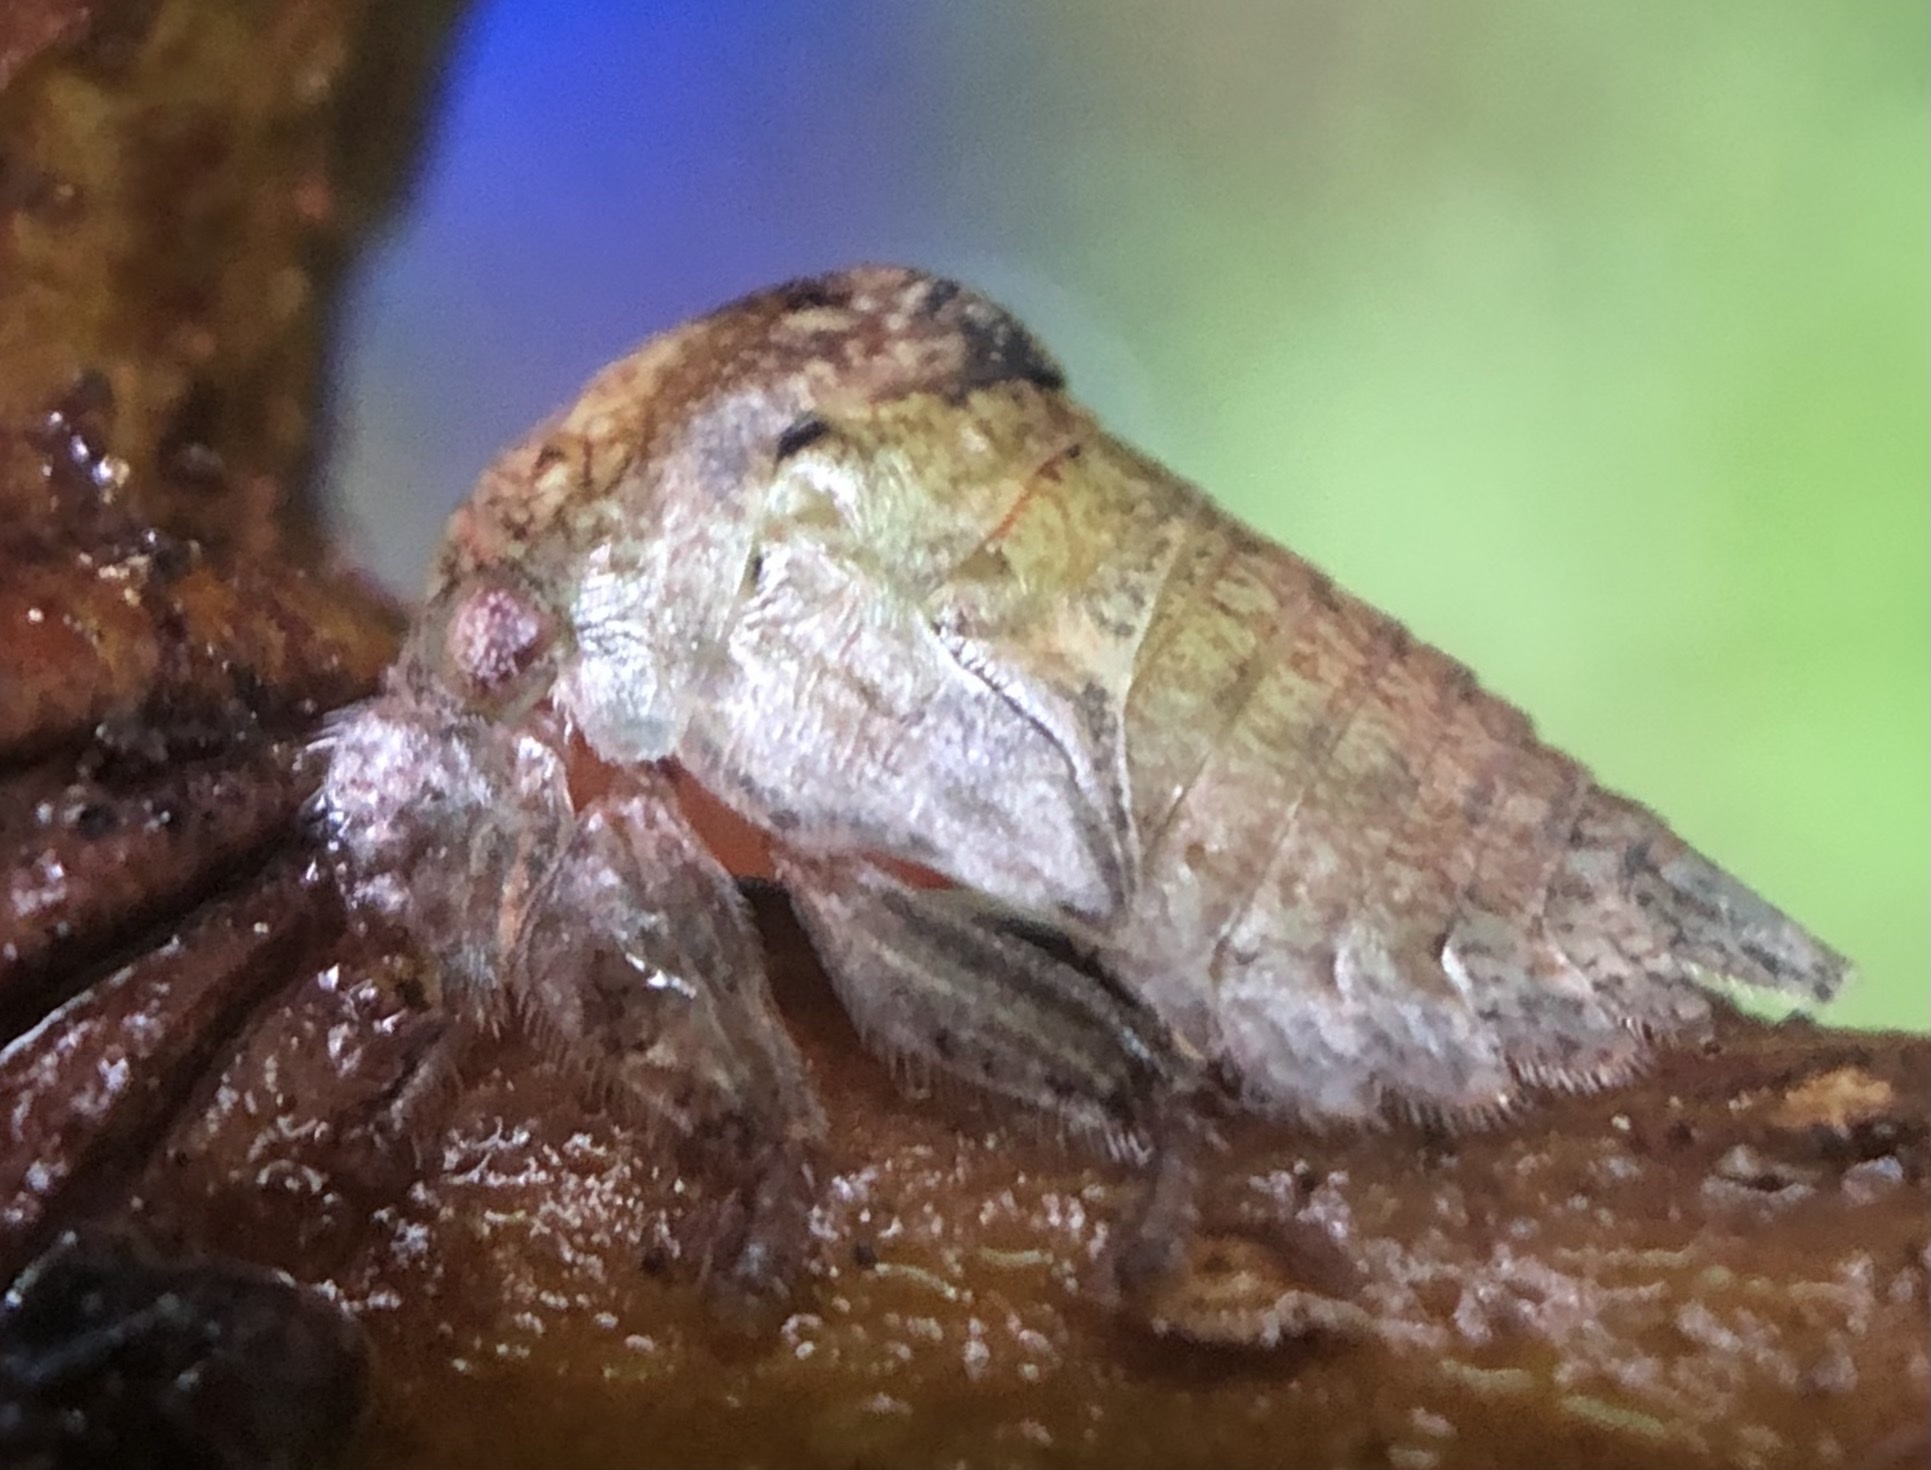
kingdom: Animalia
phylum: Arthropoda
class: Insecta
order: Hemiptera
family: Membracidae
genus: Hebetica
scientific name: Hebetica
